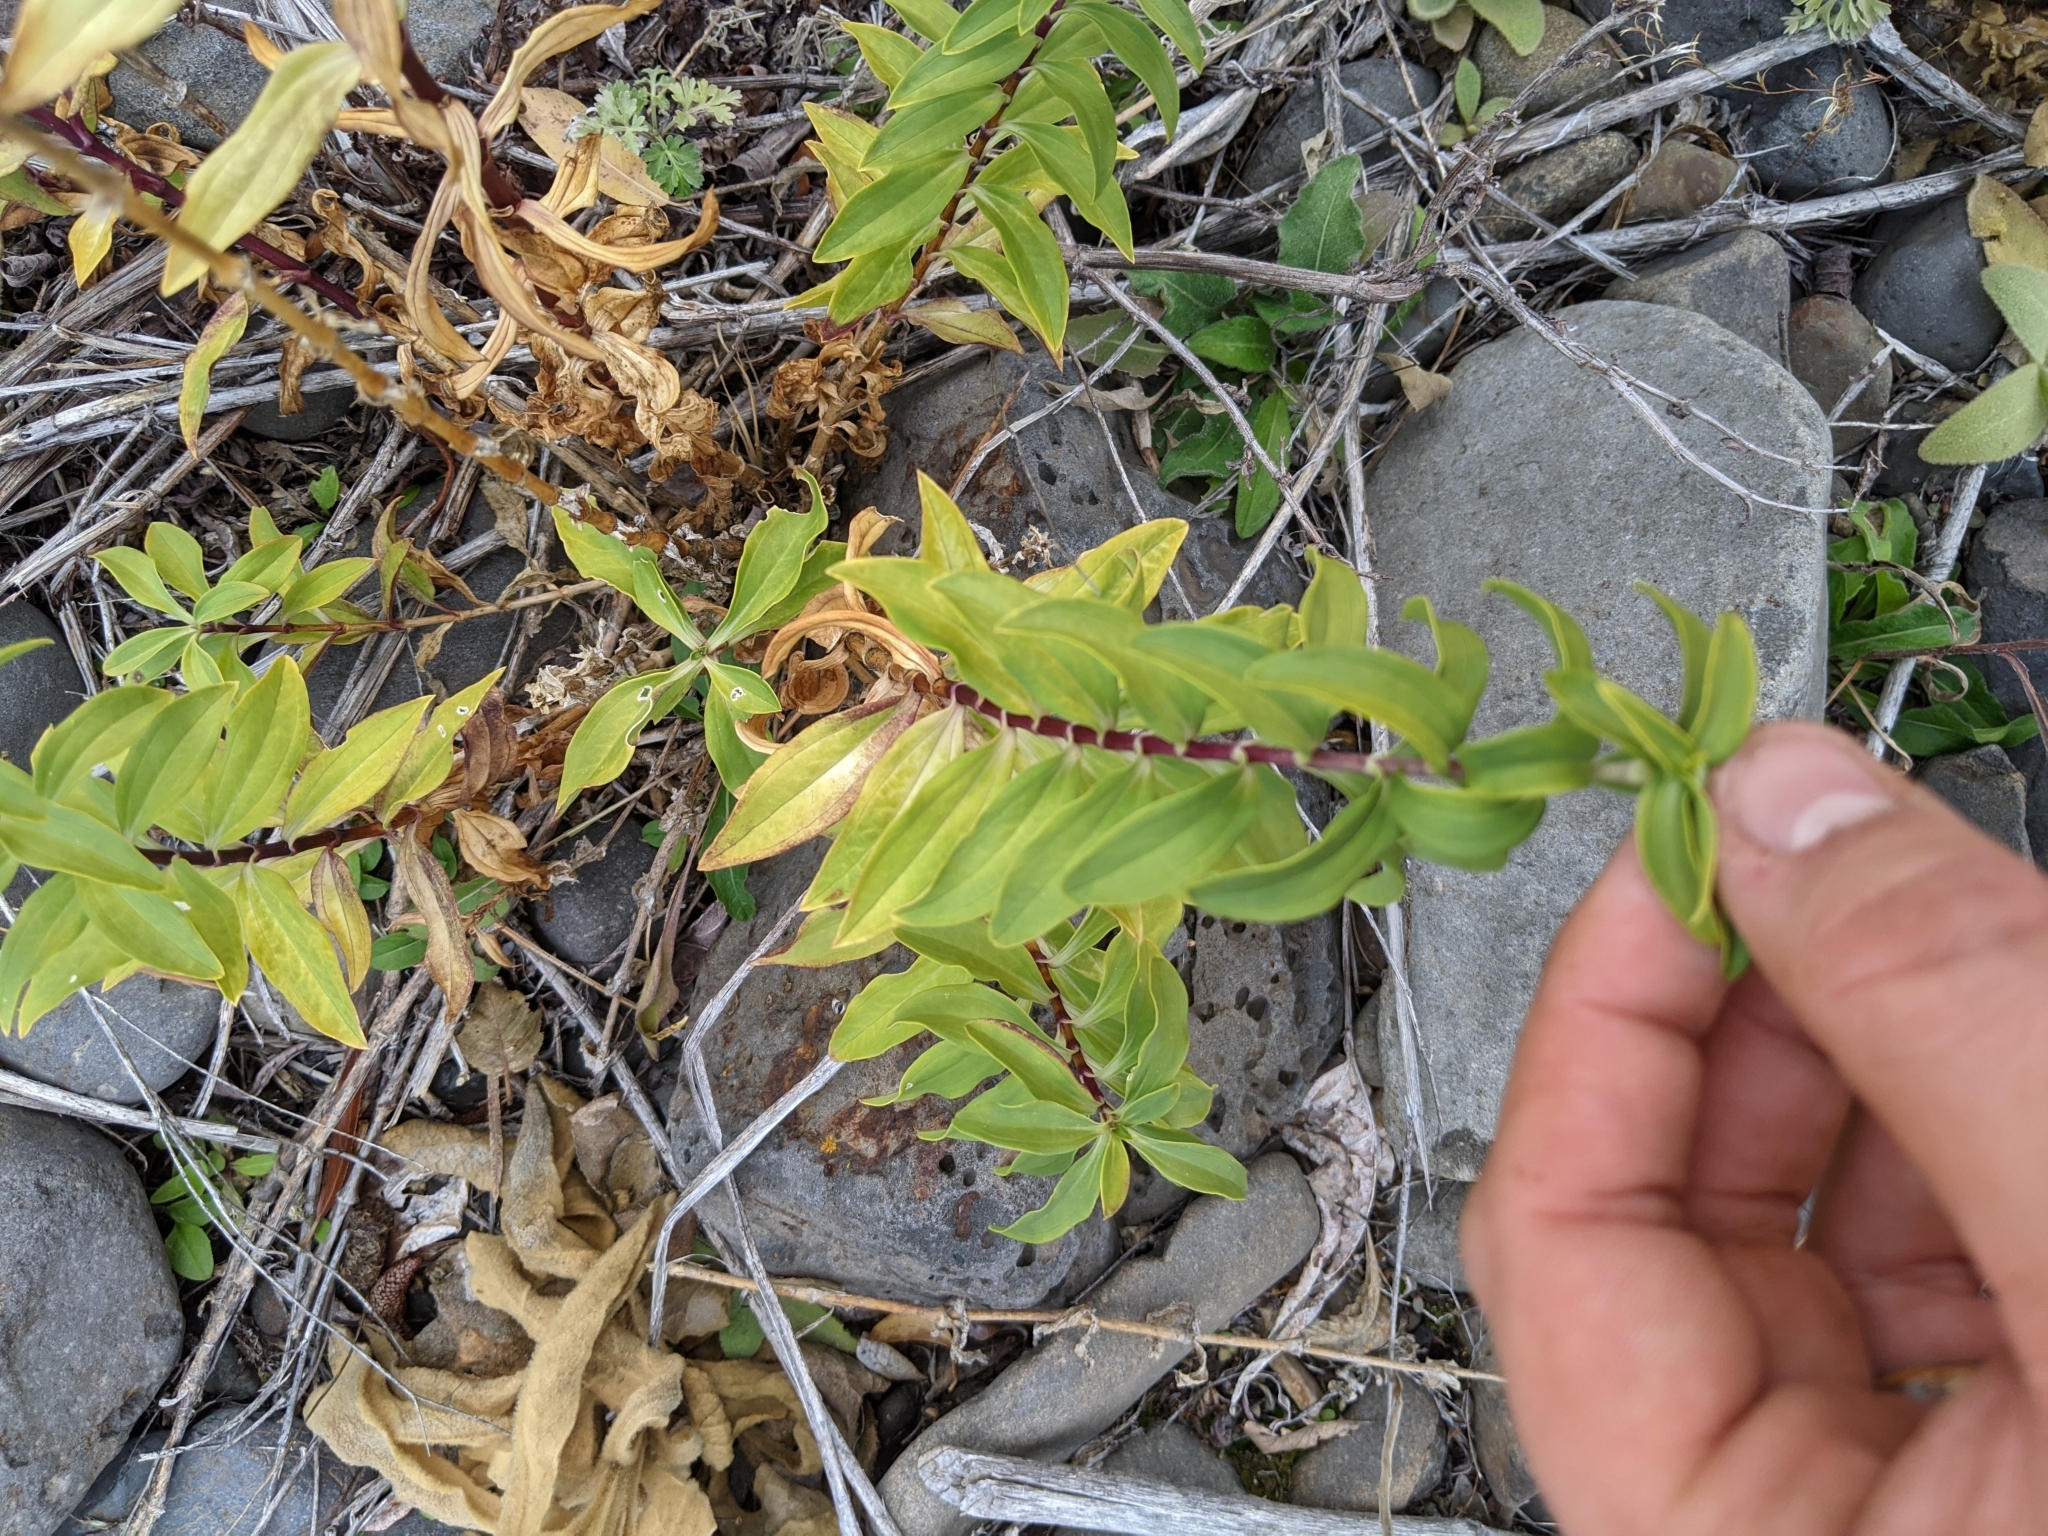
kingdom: Plantae
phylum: Tracheophyta
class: Magnoliopsida
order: Caryophyllales
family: Caryophyllaceae
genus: Saponaria
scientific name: Saponaria officinalis
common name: Soapwort
